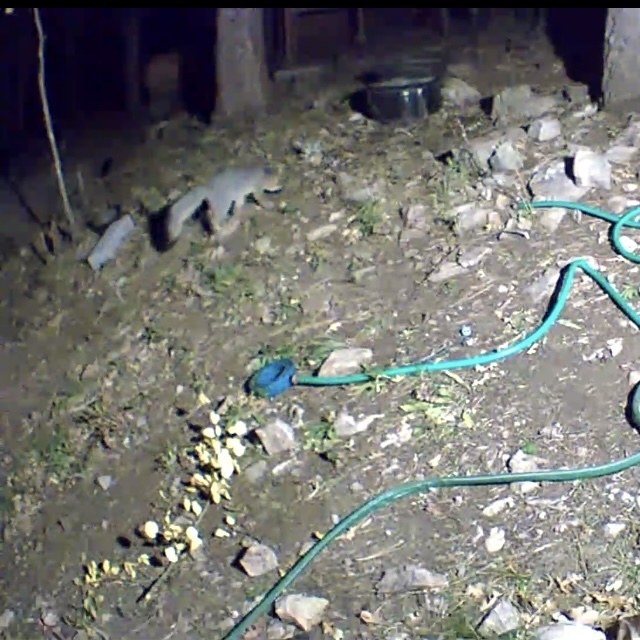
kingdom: Animalia
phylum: Chordata
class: Mammalia
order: Carnivora
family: Canidae
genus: Urocyon
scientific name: Urocyon cinereoargenteus
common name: Gray fox
